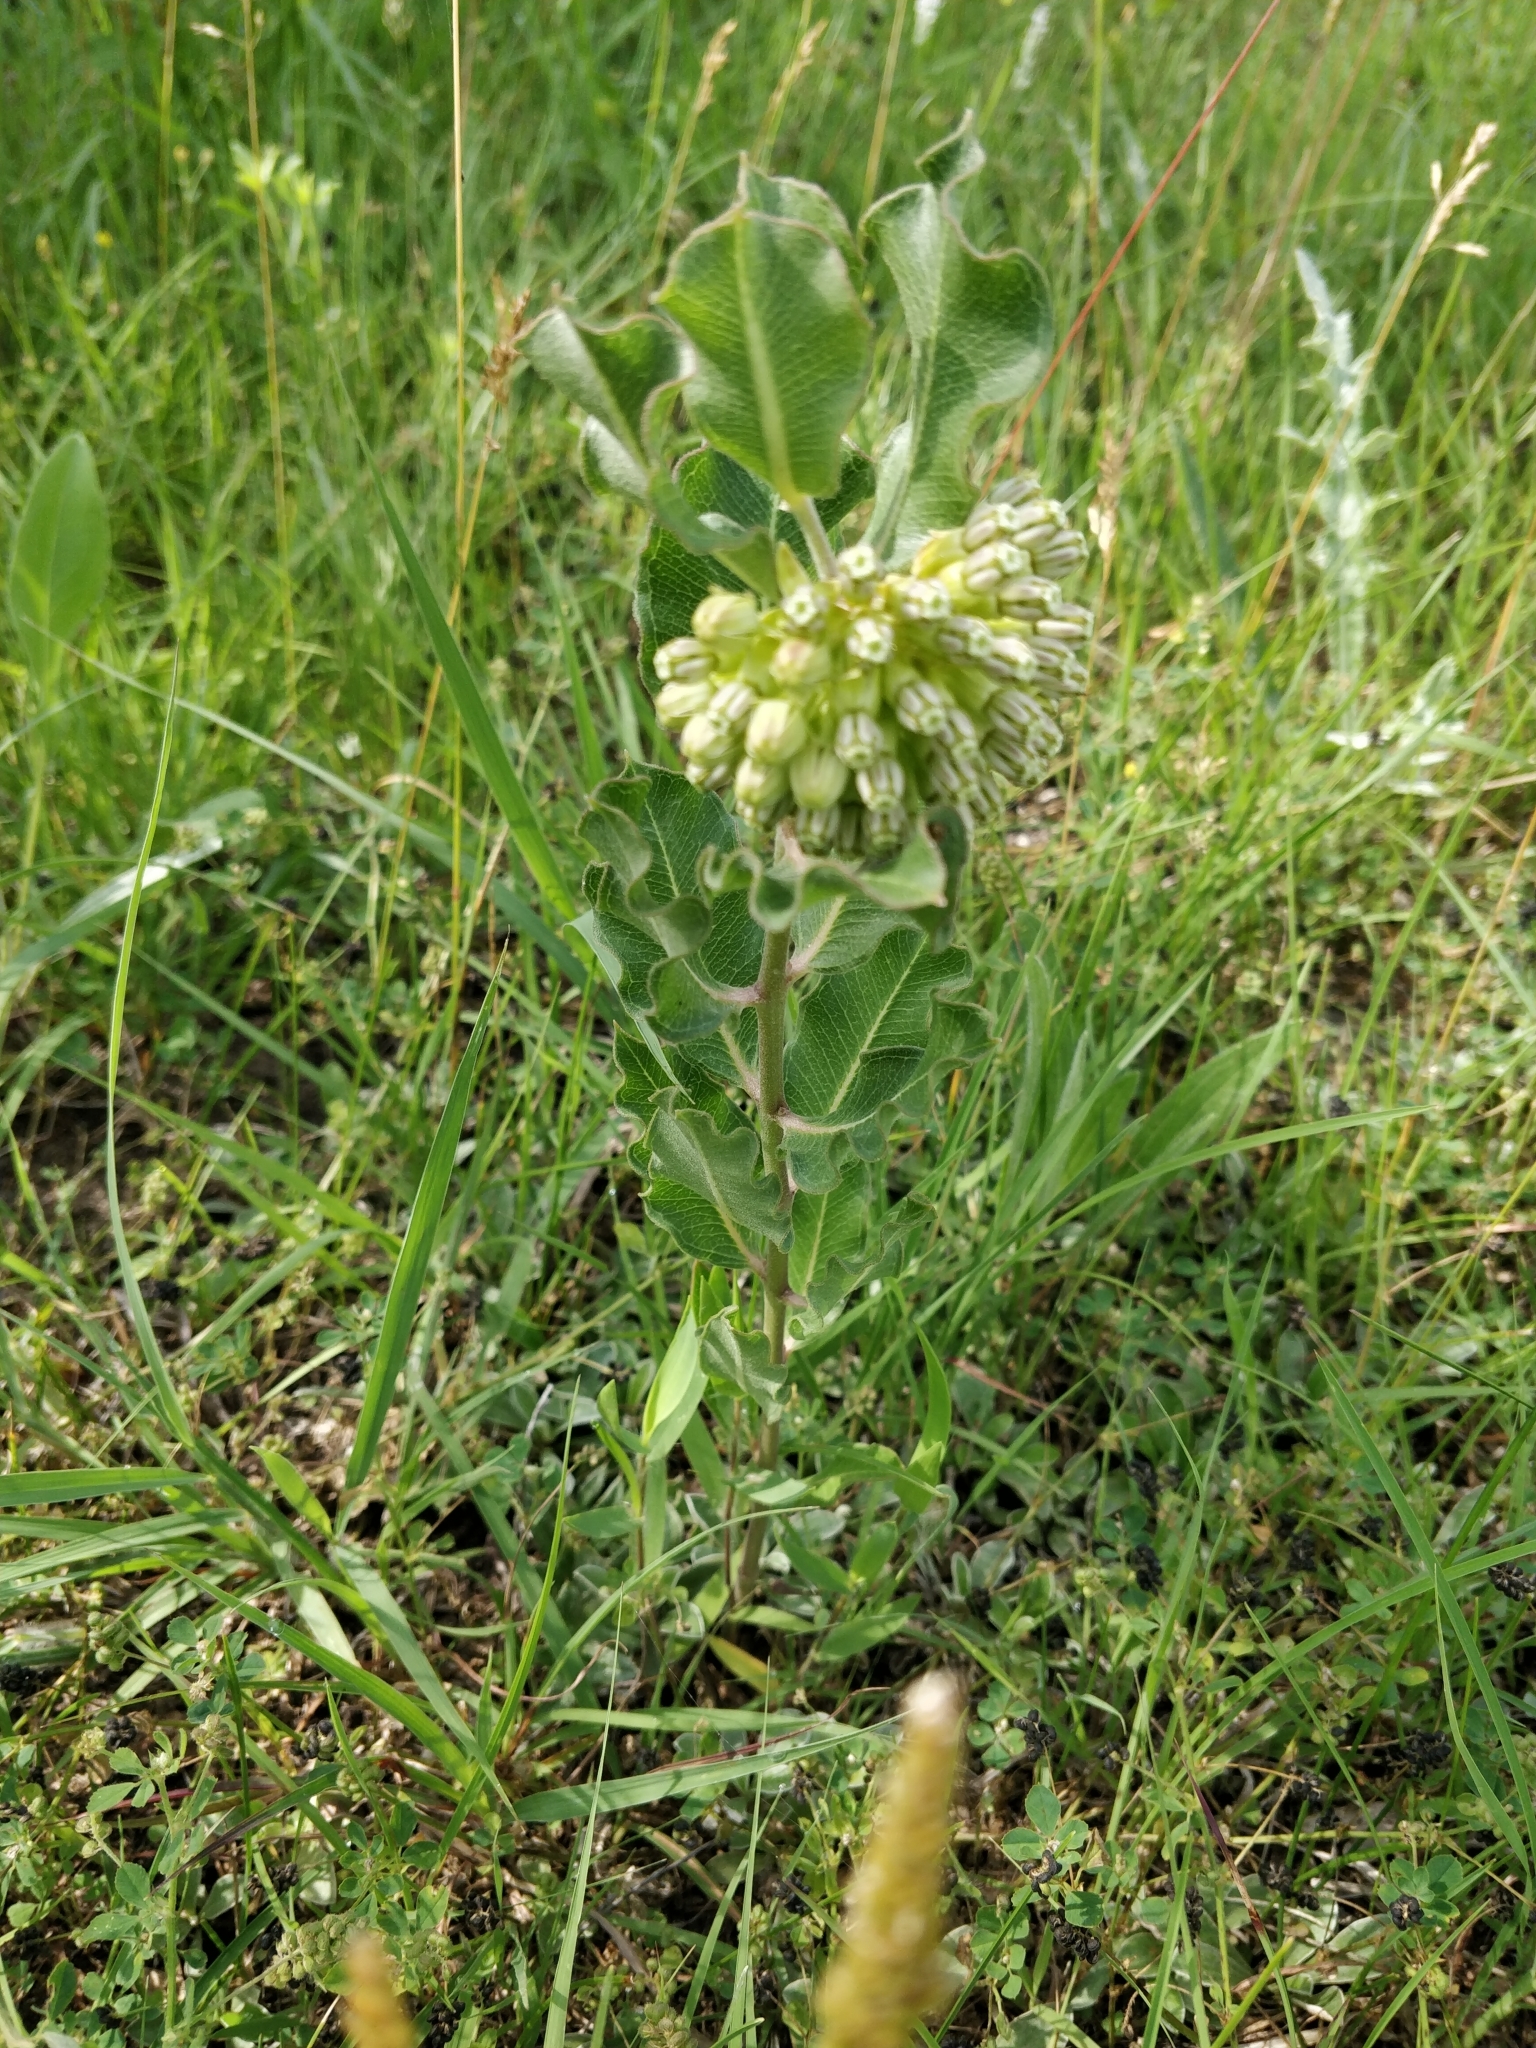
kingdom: Plantae
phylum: Tracheophyta
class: Magnoliopsida
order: Gentianales
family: Apocynaceae
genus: Asclepias
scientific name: Asclepias viridiflora
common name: Green comet milkweed
